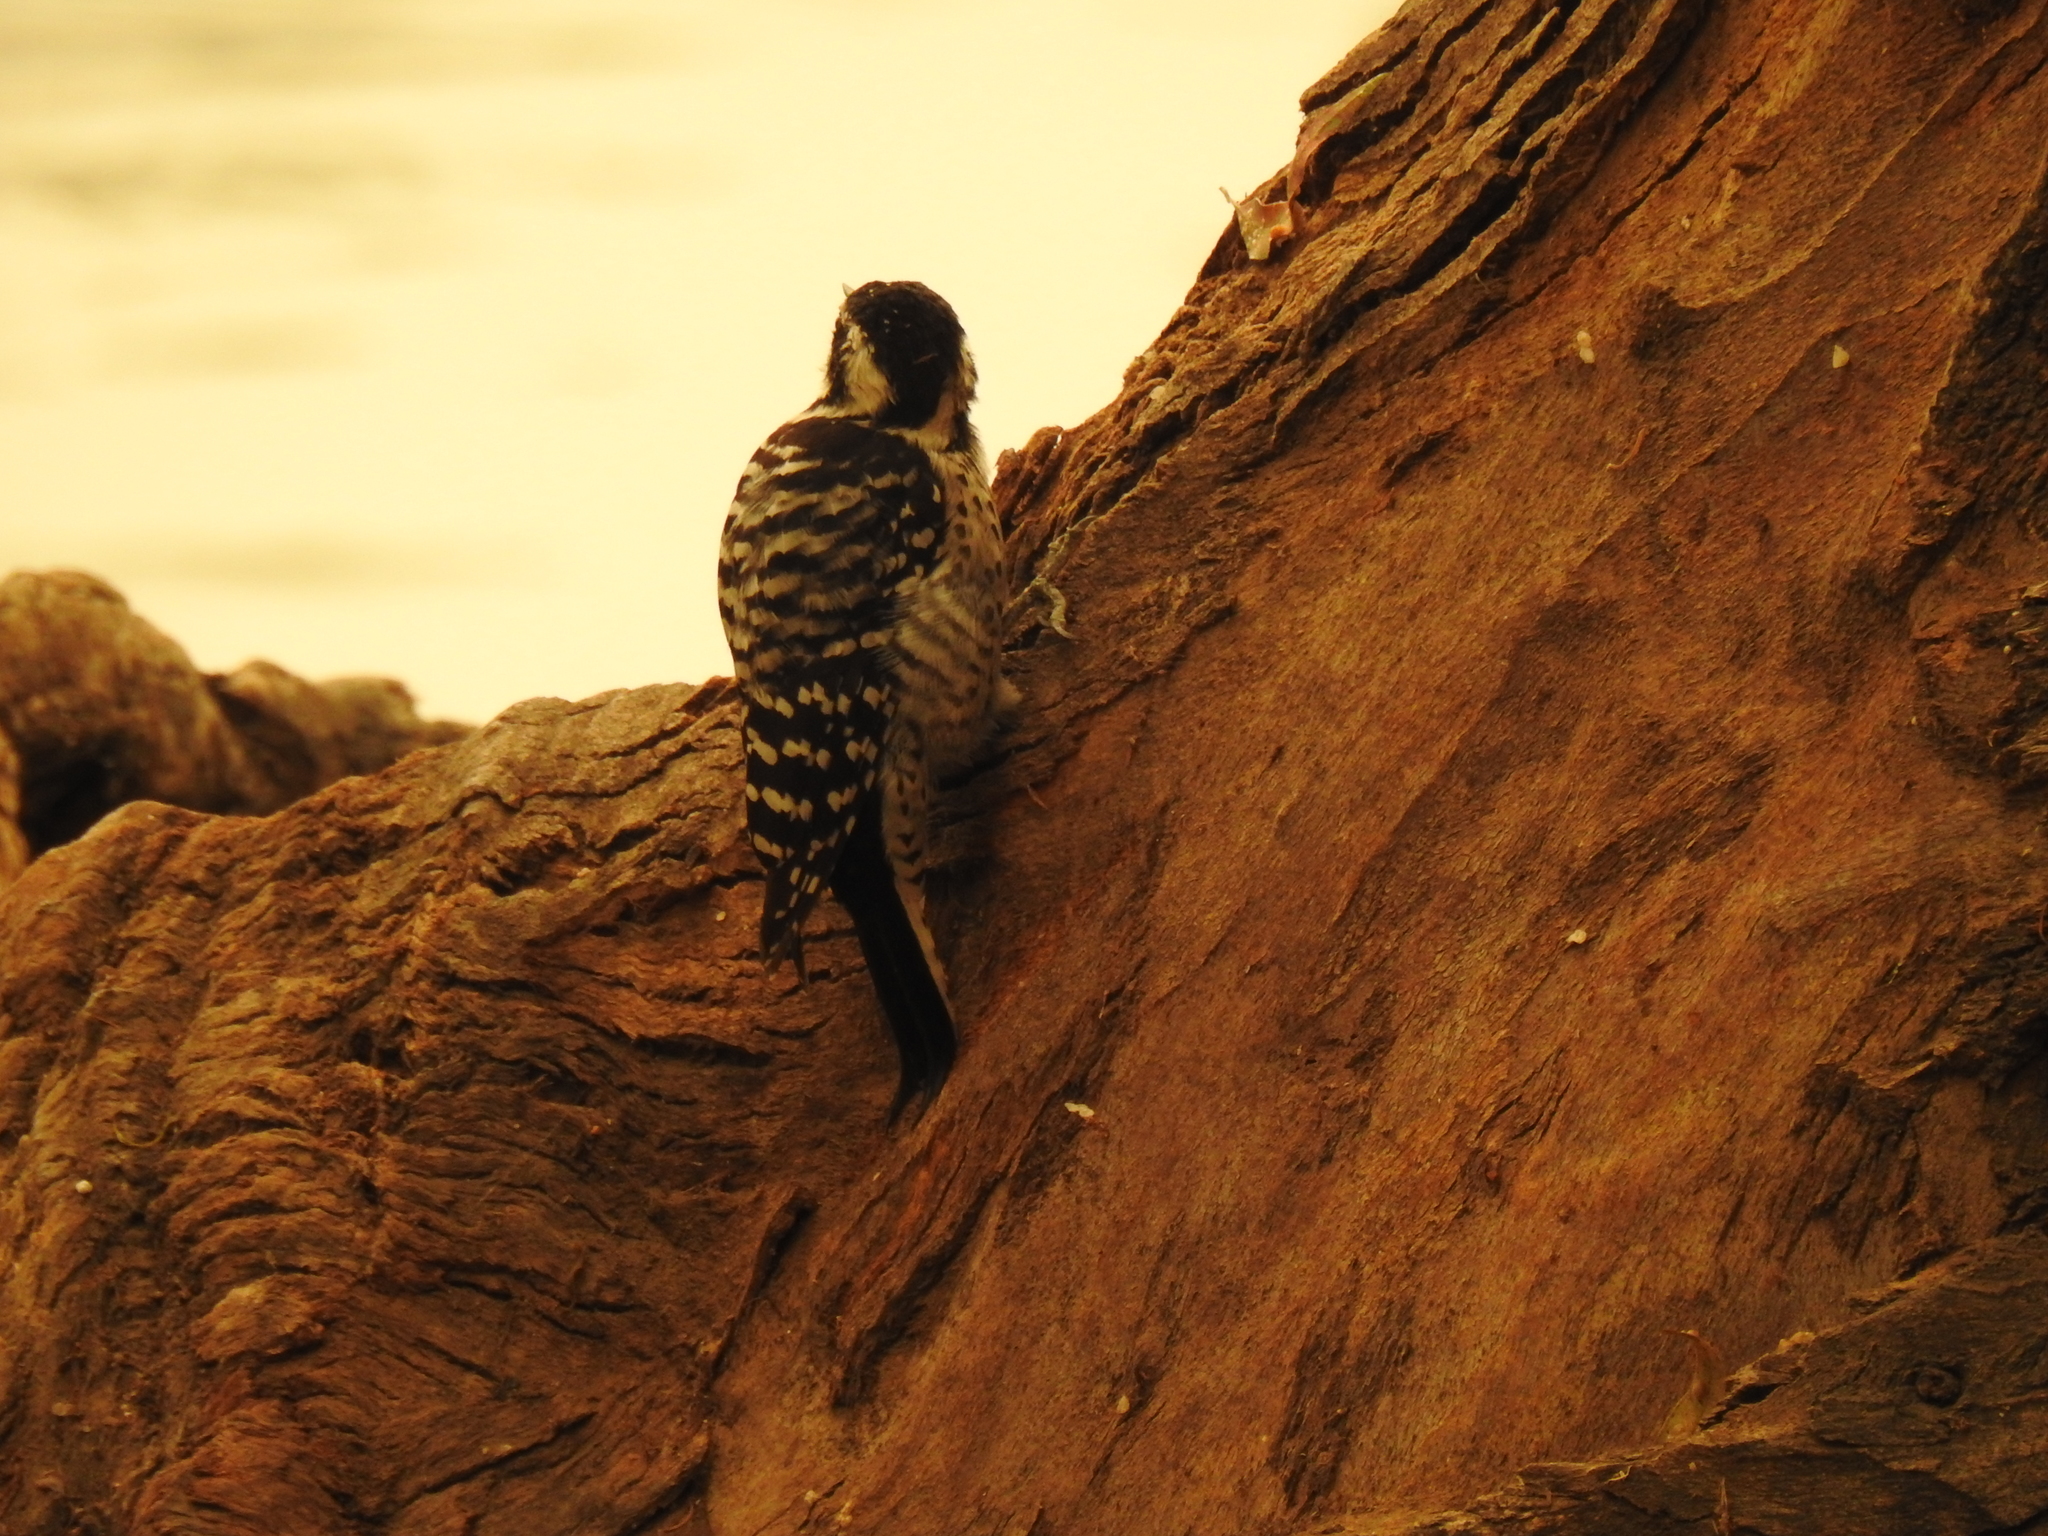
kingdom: Animalia
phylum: Chordata
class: Aves
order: Piciformes
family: Picidae
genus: Dryobates
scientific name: Dryobates nuttallii
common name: Nuttall's woodpecker
